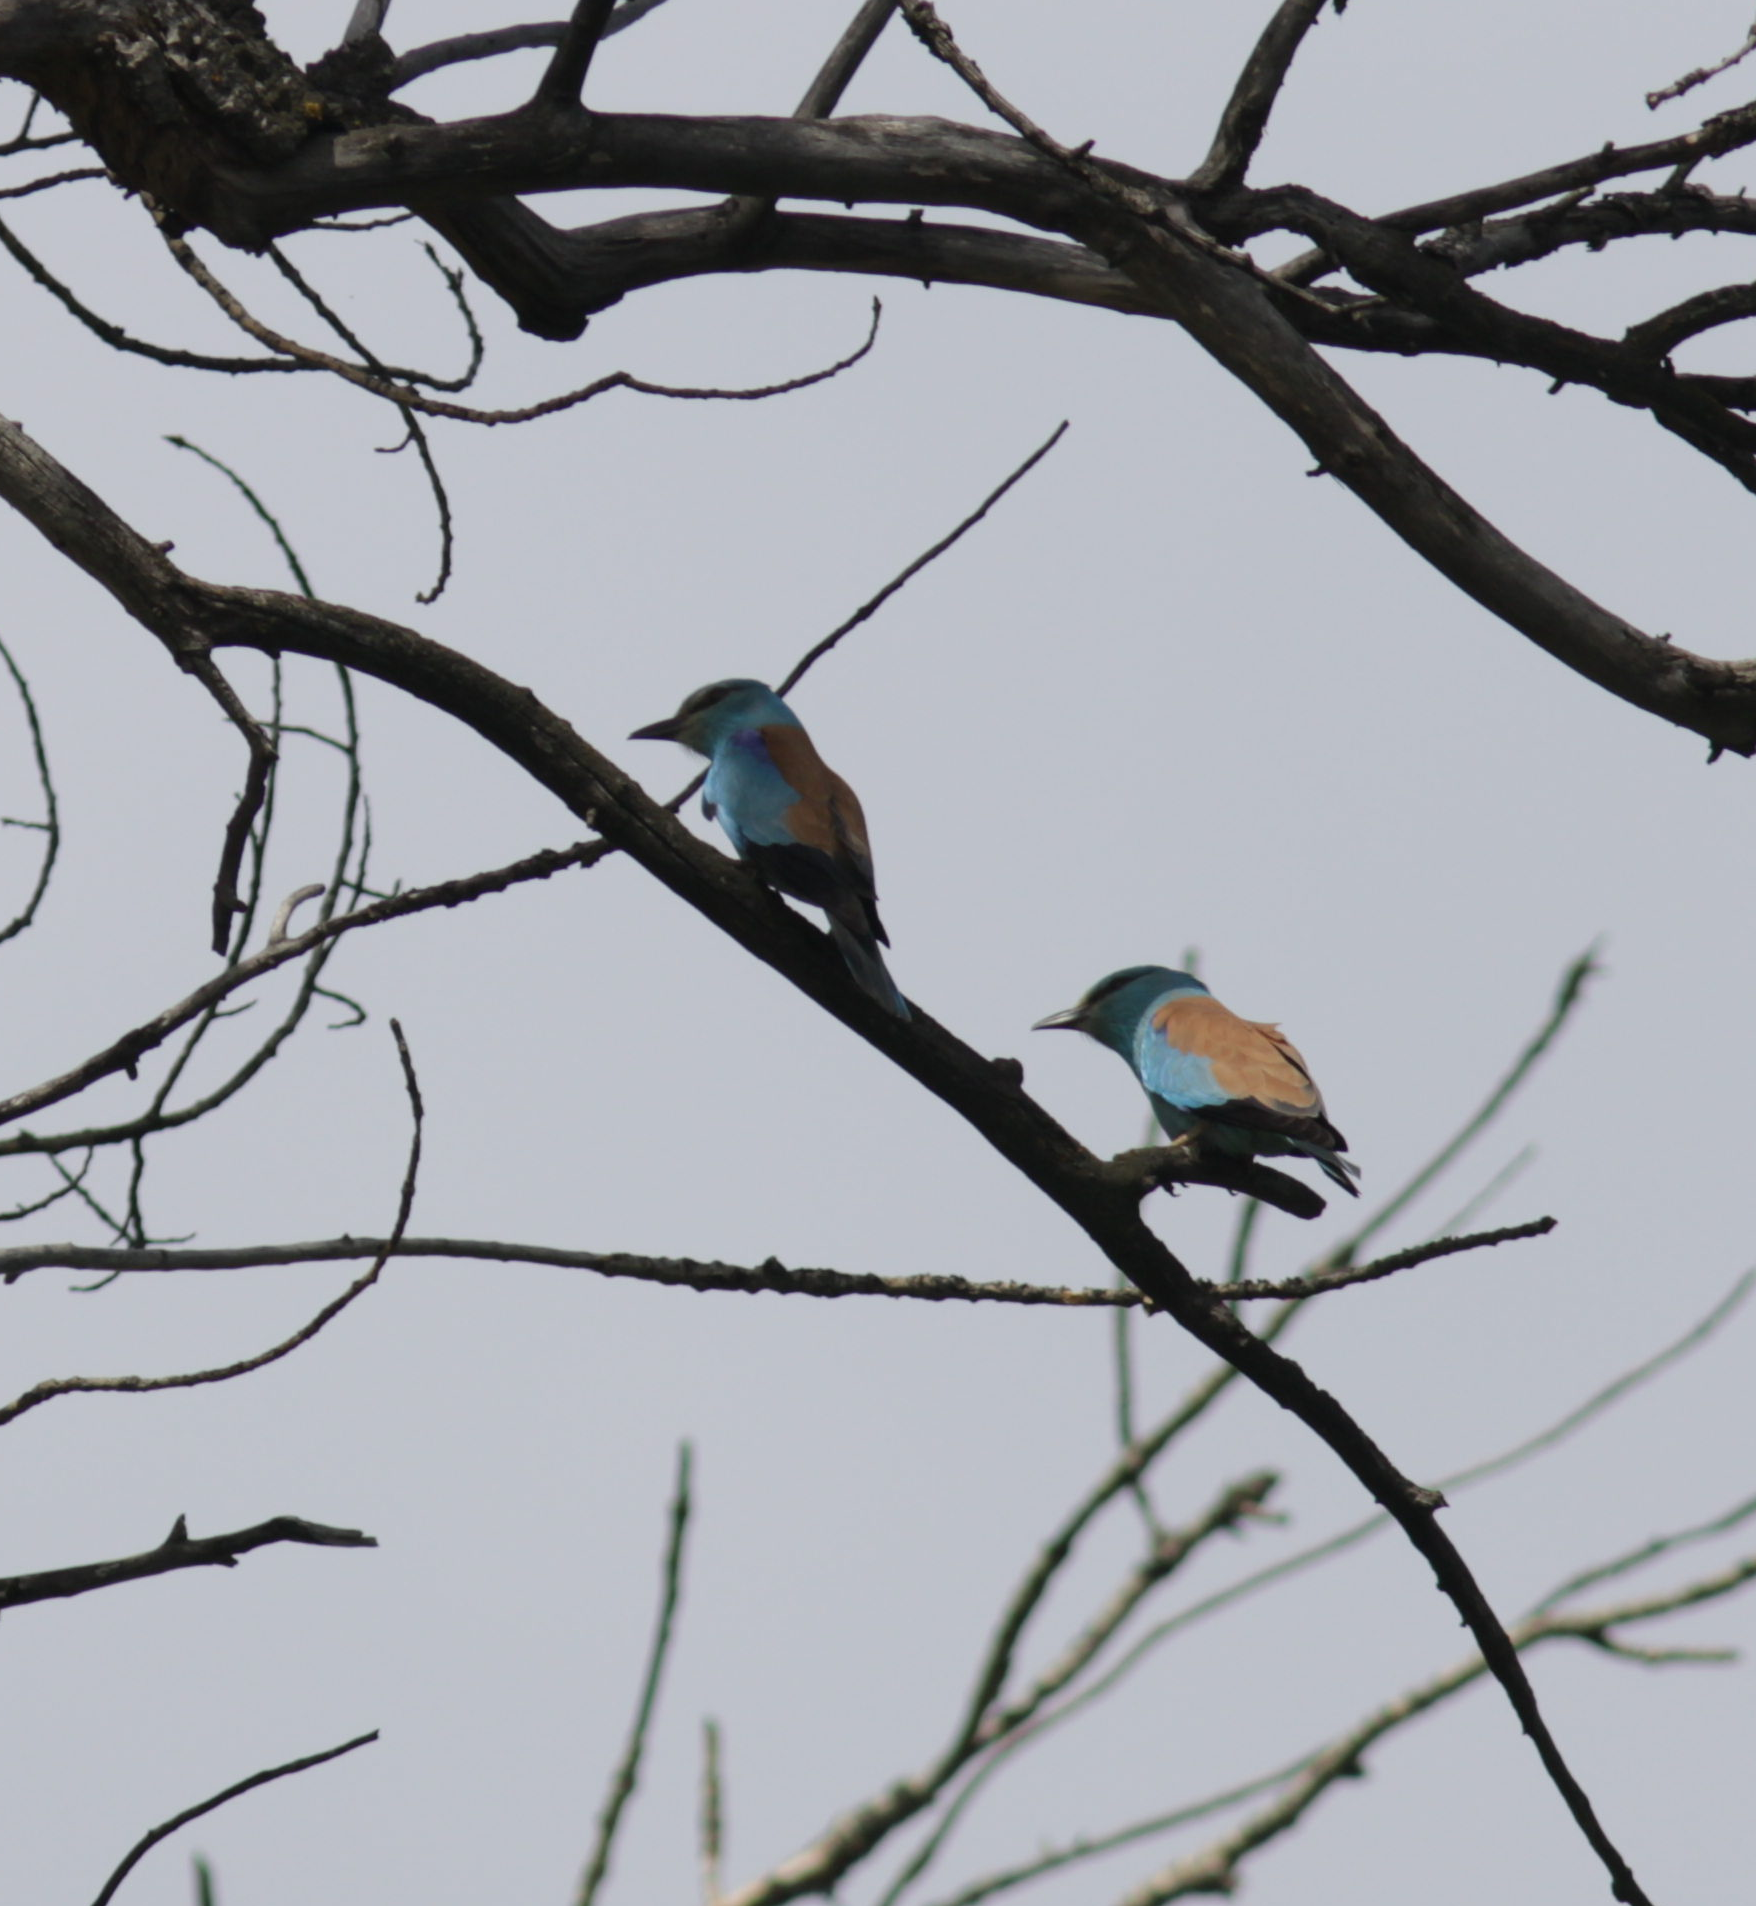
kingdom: Animalia
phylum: Chordata
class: Aves
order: Coraciiformes
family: Coraciidae
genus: Coracias
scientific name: Coracias garrulus
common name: European roller
